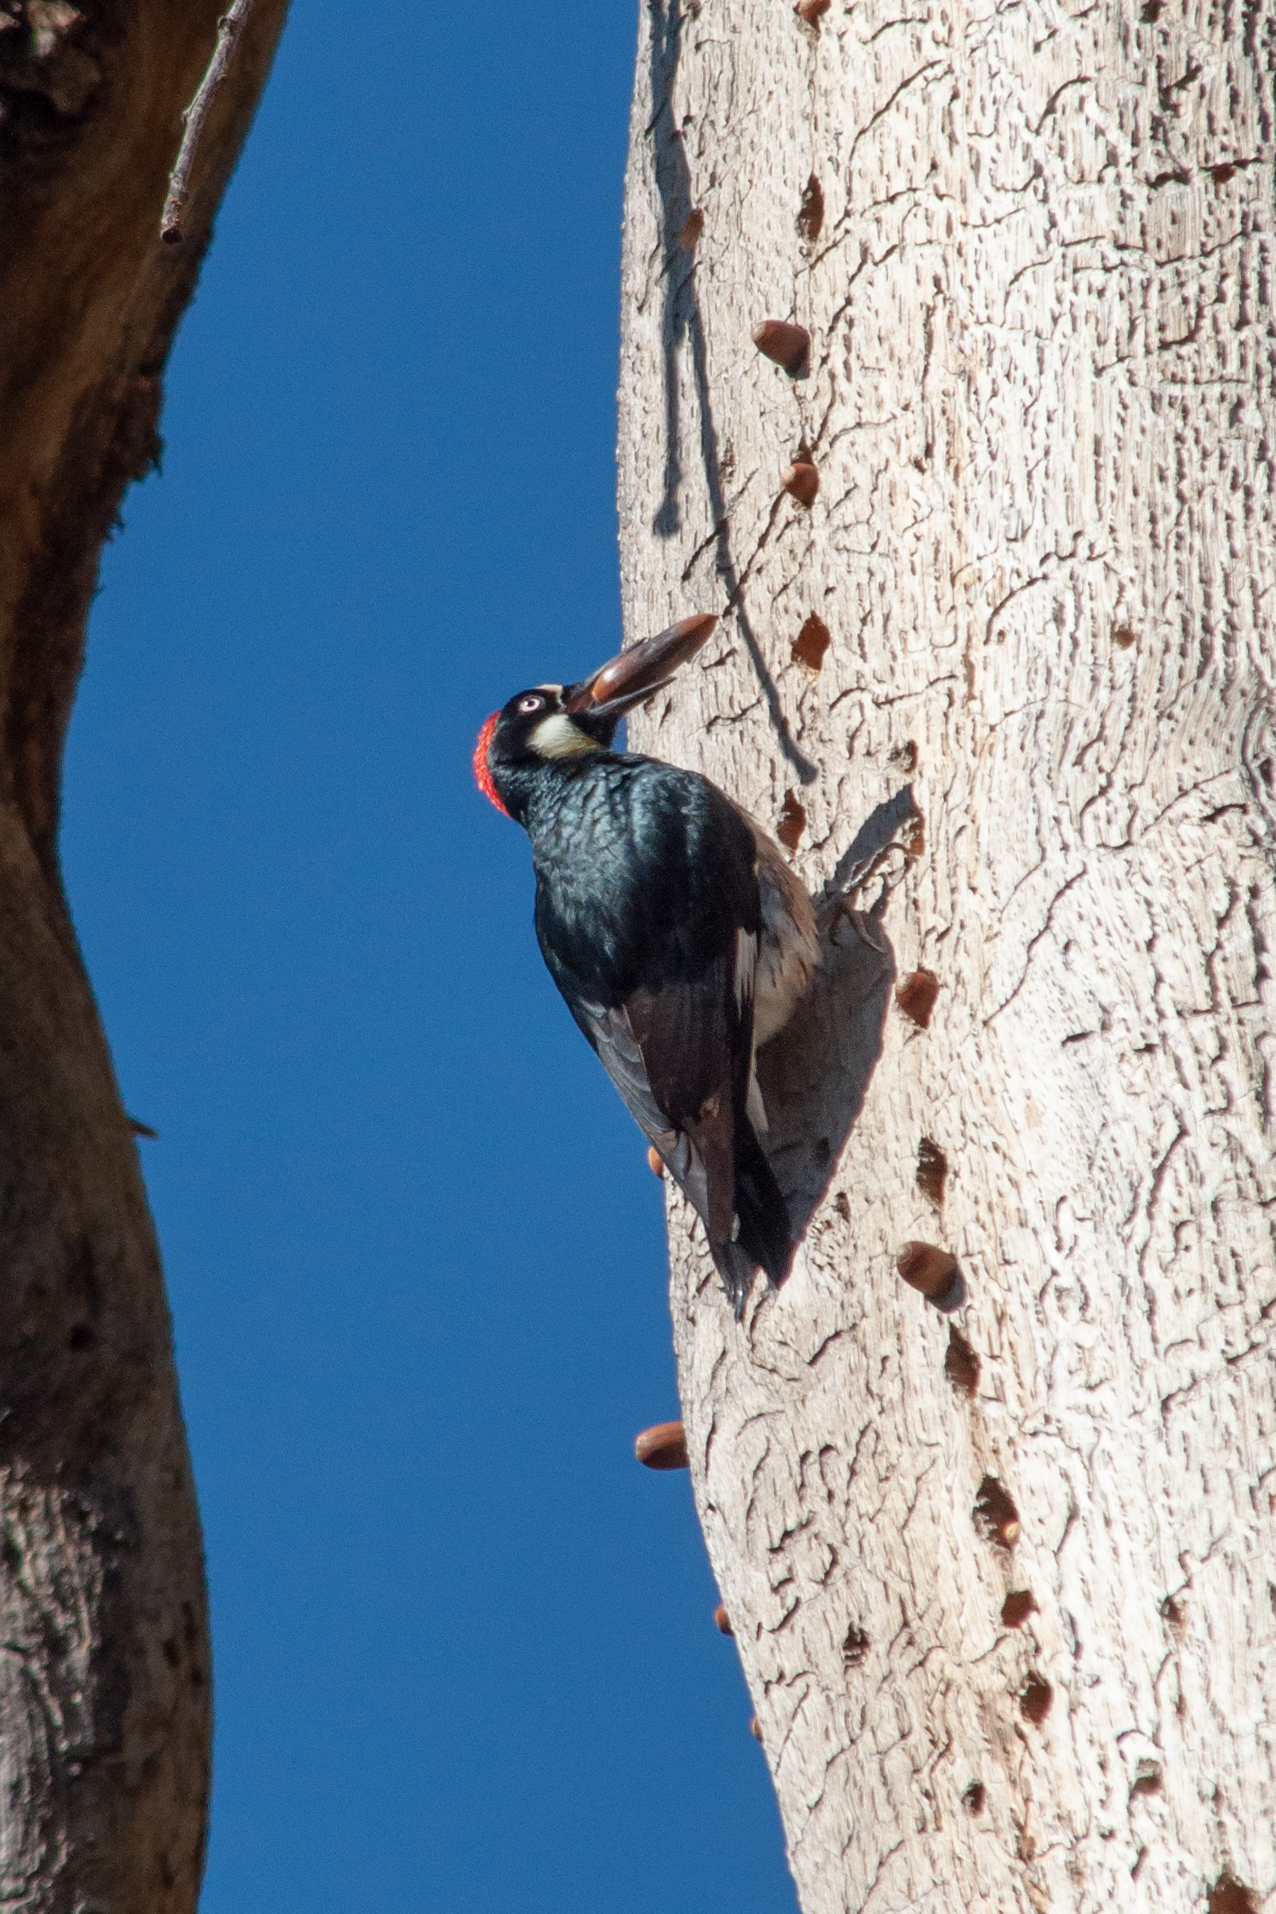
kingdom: Animalia
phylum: Chordata
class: Aves
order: Piciformes
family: Picidae
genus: Melanerpes
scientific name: Melanerpes formicivorus
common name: Acorn woodpecker
